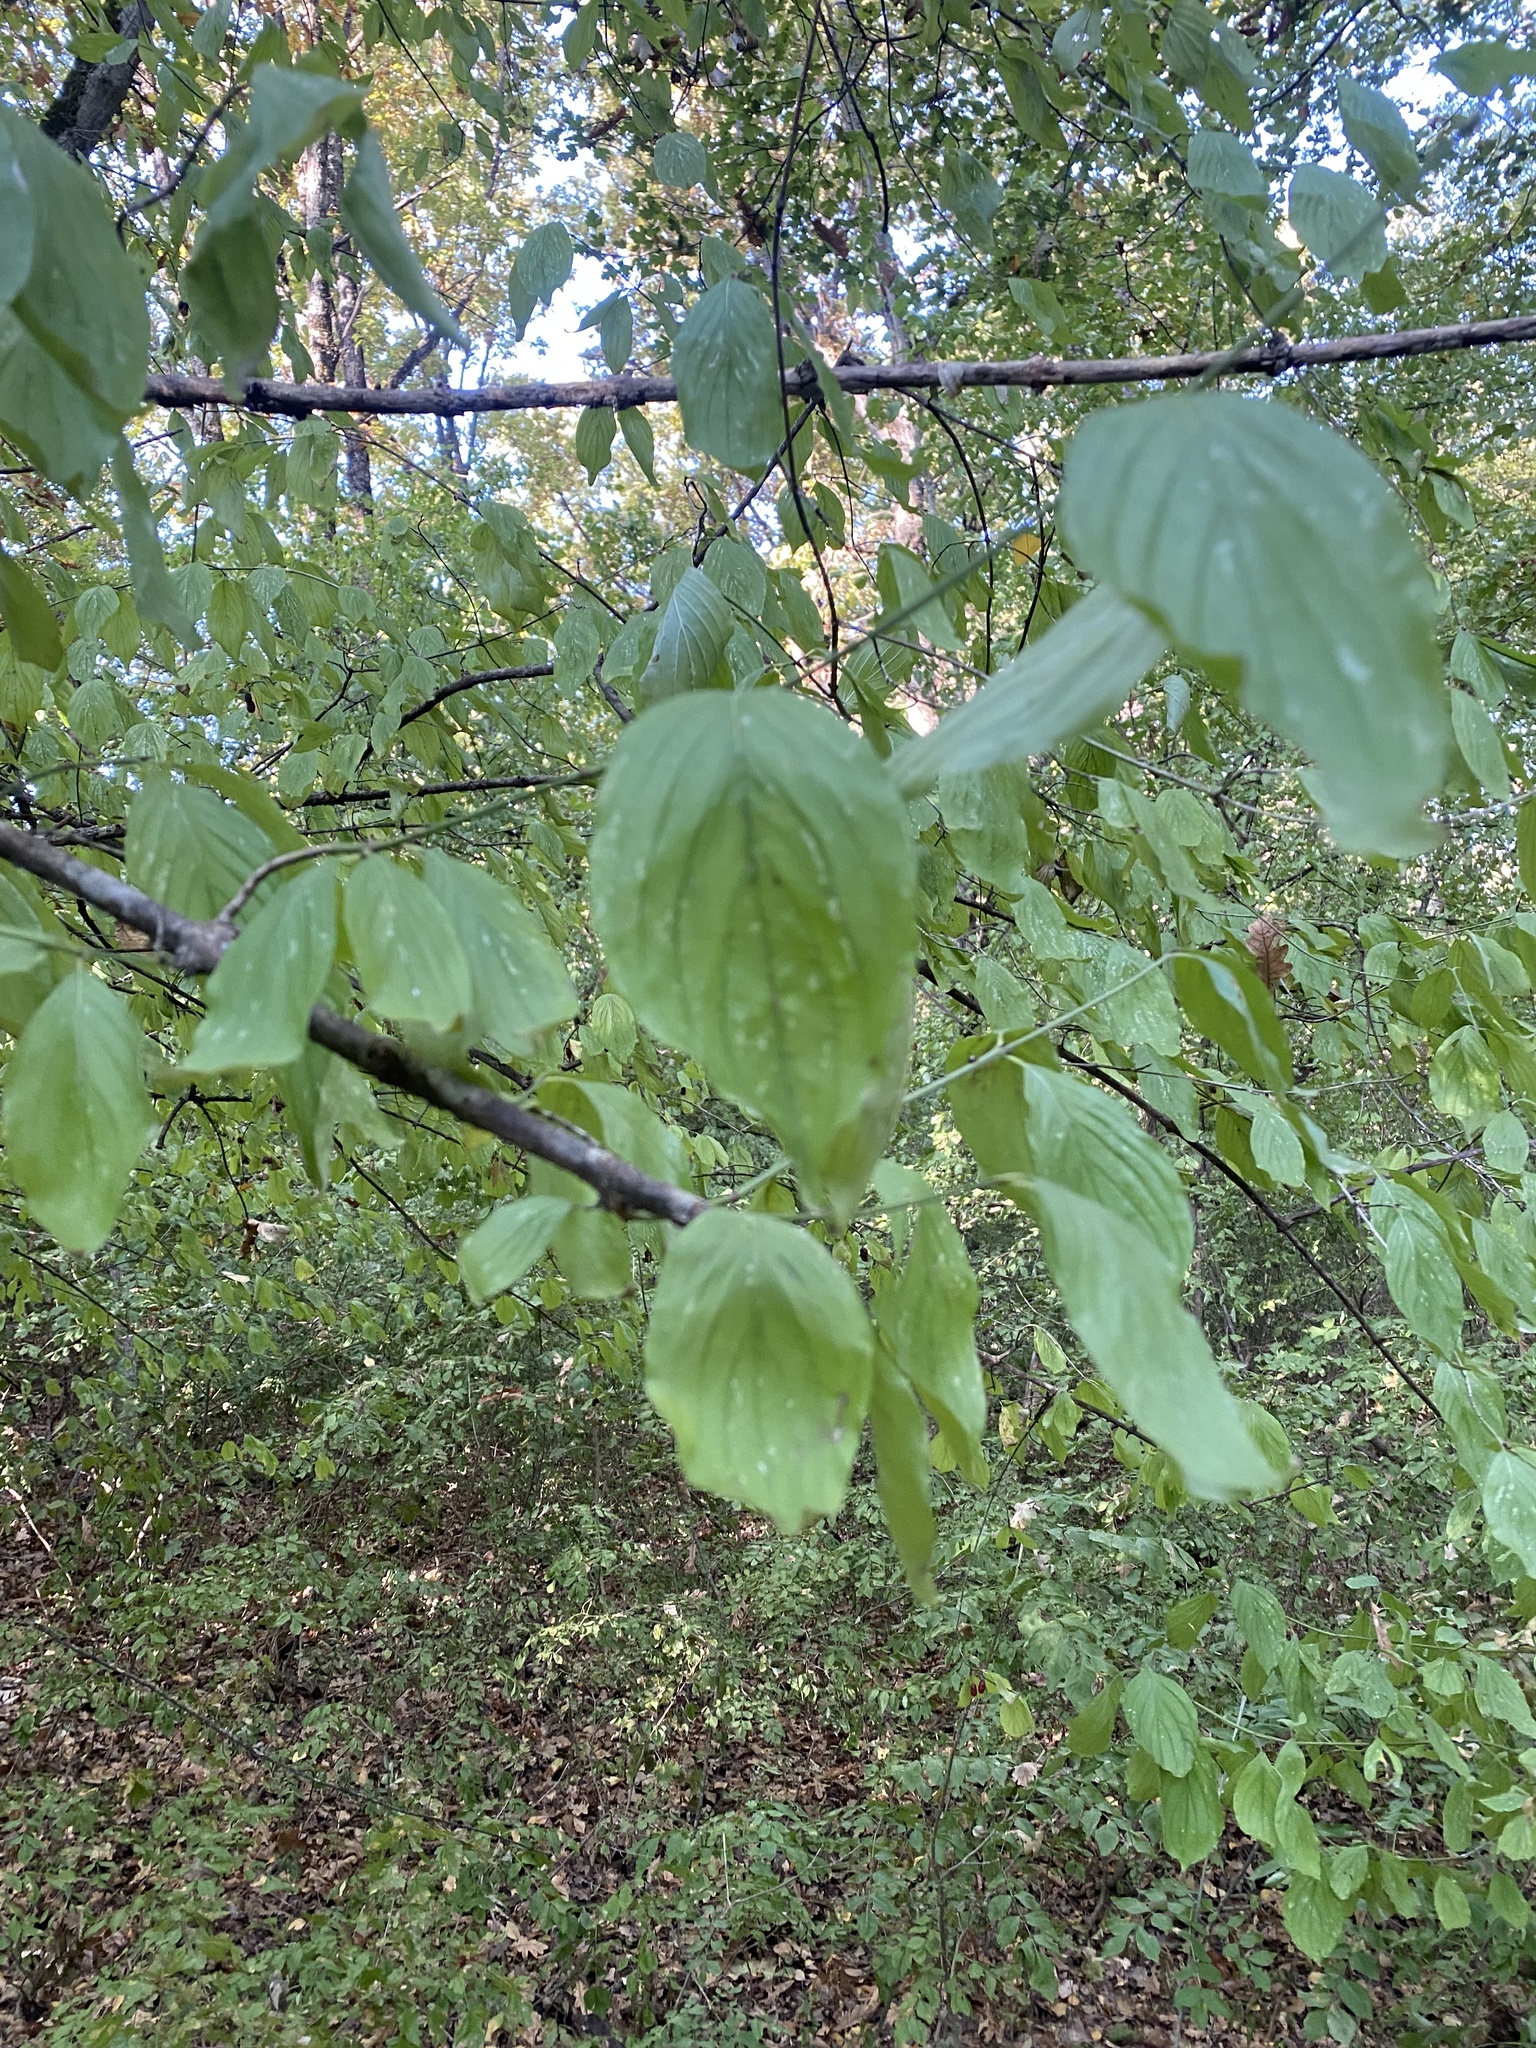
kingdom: Plantae
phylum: Tracheophyta
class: Magnoliopsida
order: Cornales
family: Cornaceae
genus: Cornus
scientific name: Cornus mas
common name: Cornelian-cherry
